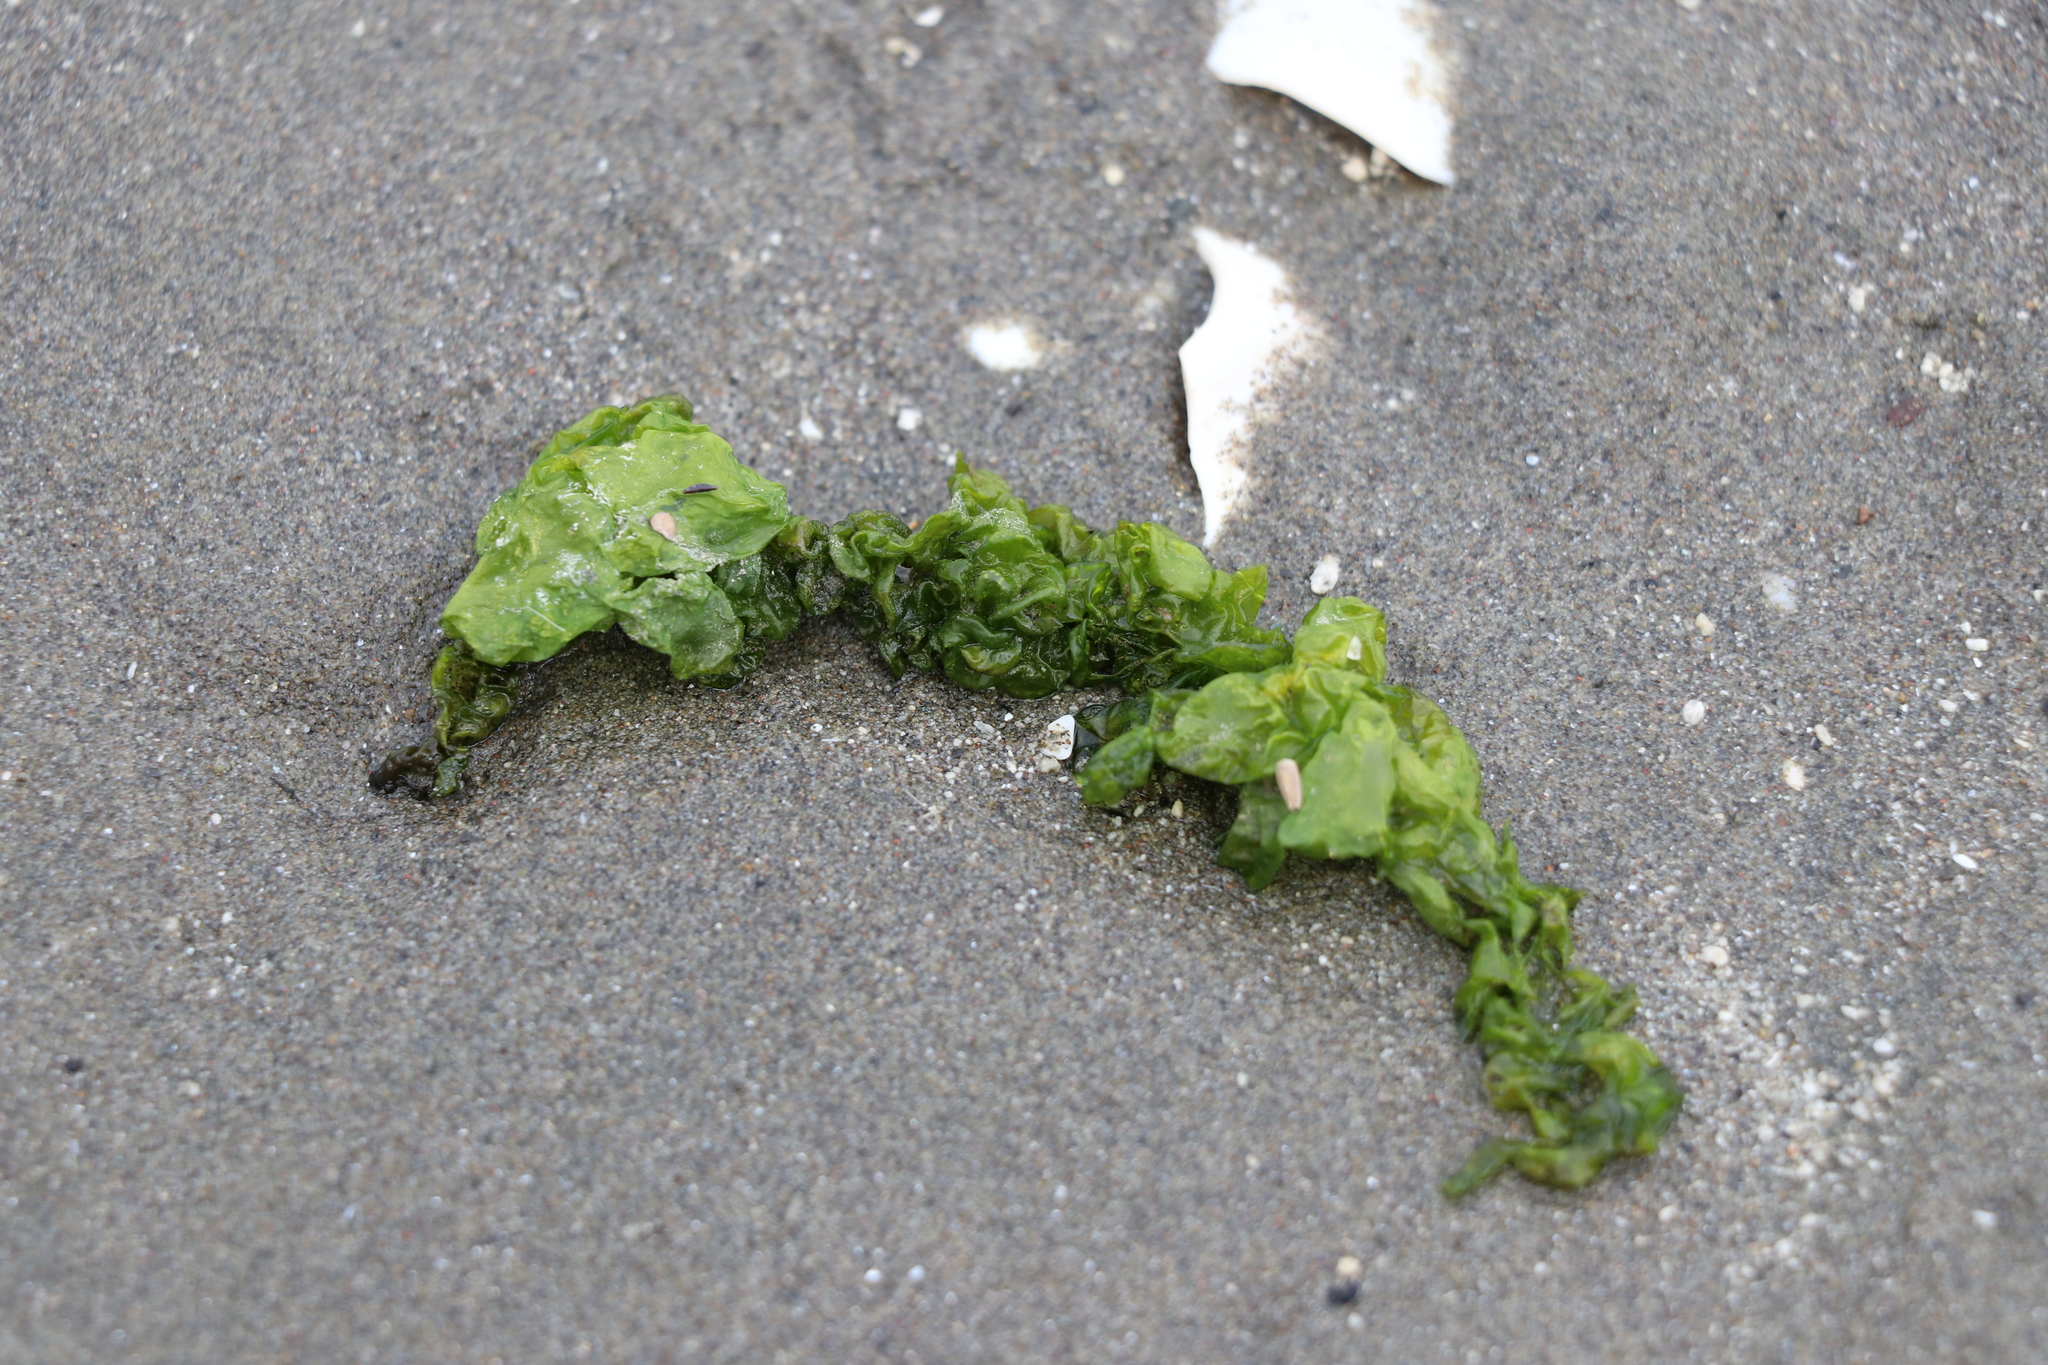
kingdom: Plantae
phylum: Chlorophyta
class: Ulvophyceae
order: Ulvales
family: Ulvaceae
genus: Ulva
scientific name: Ulva
